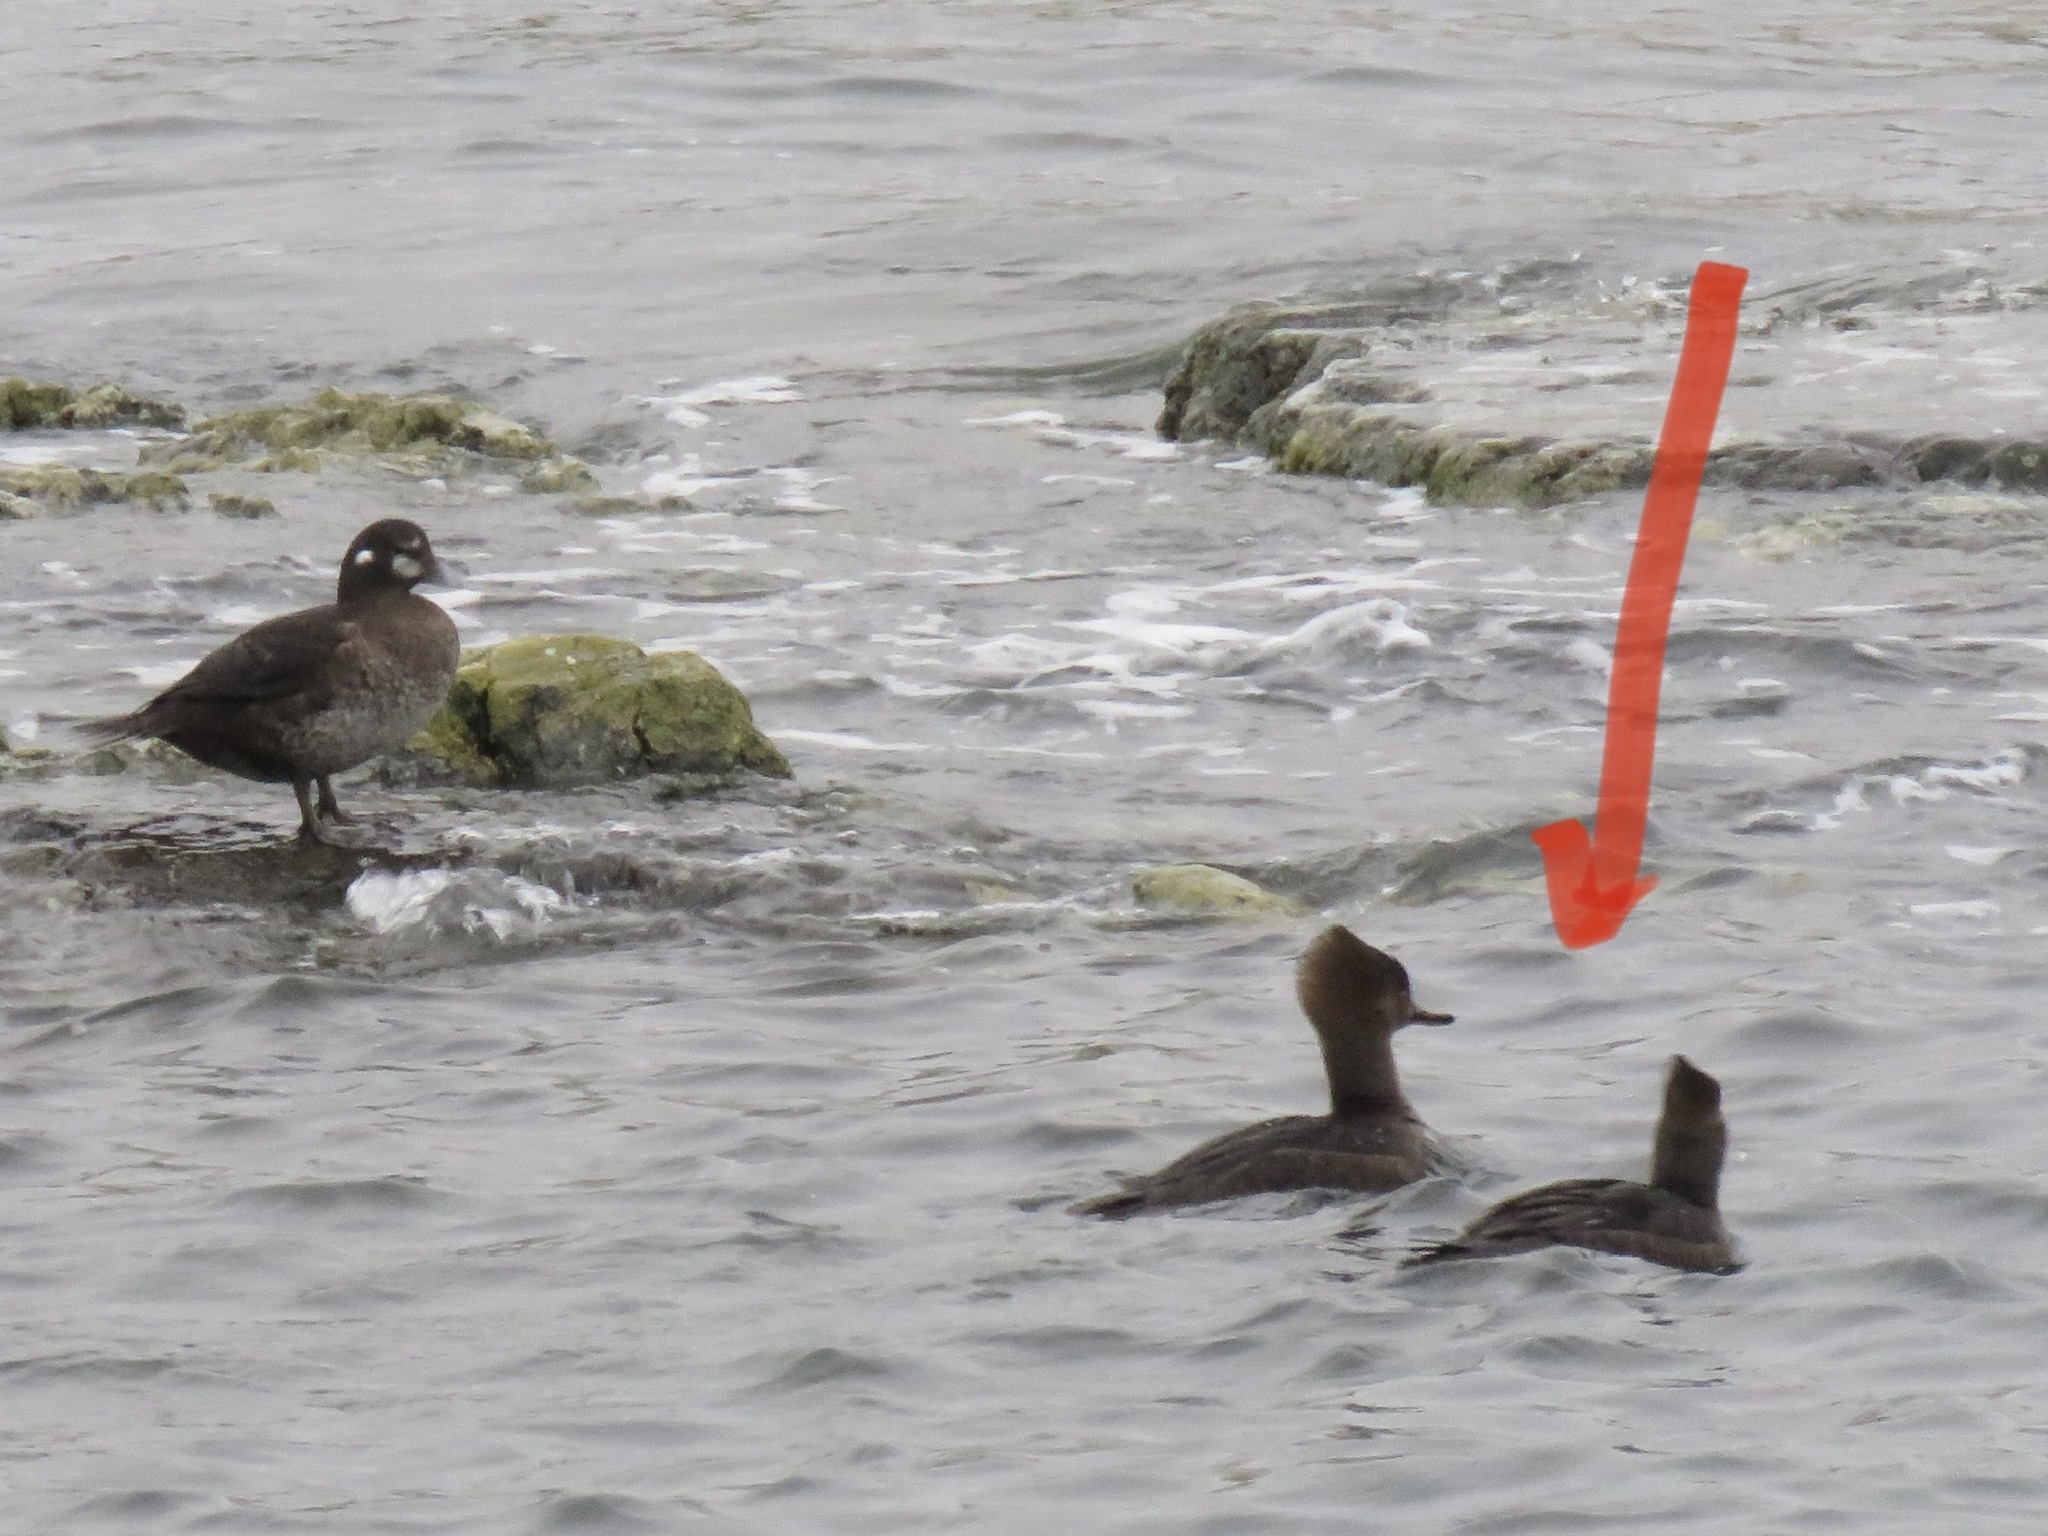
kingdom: Animalia
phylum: Chordata
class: Aves
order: Anseriformes
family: Anatidae
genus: Lophodytes
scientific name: Lophodytes cucullatus
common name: Hooded merganser
